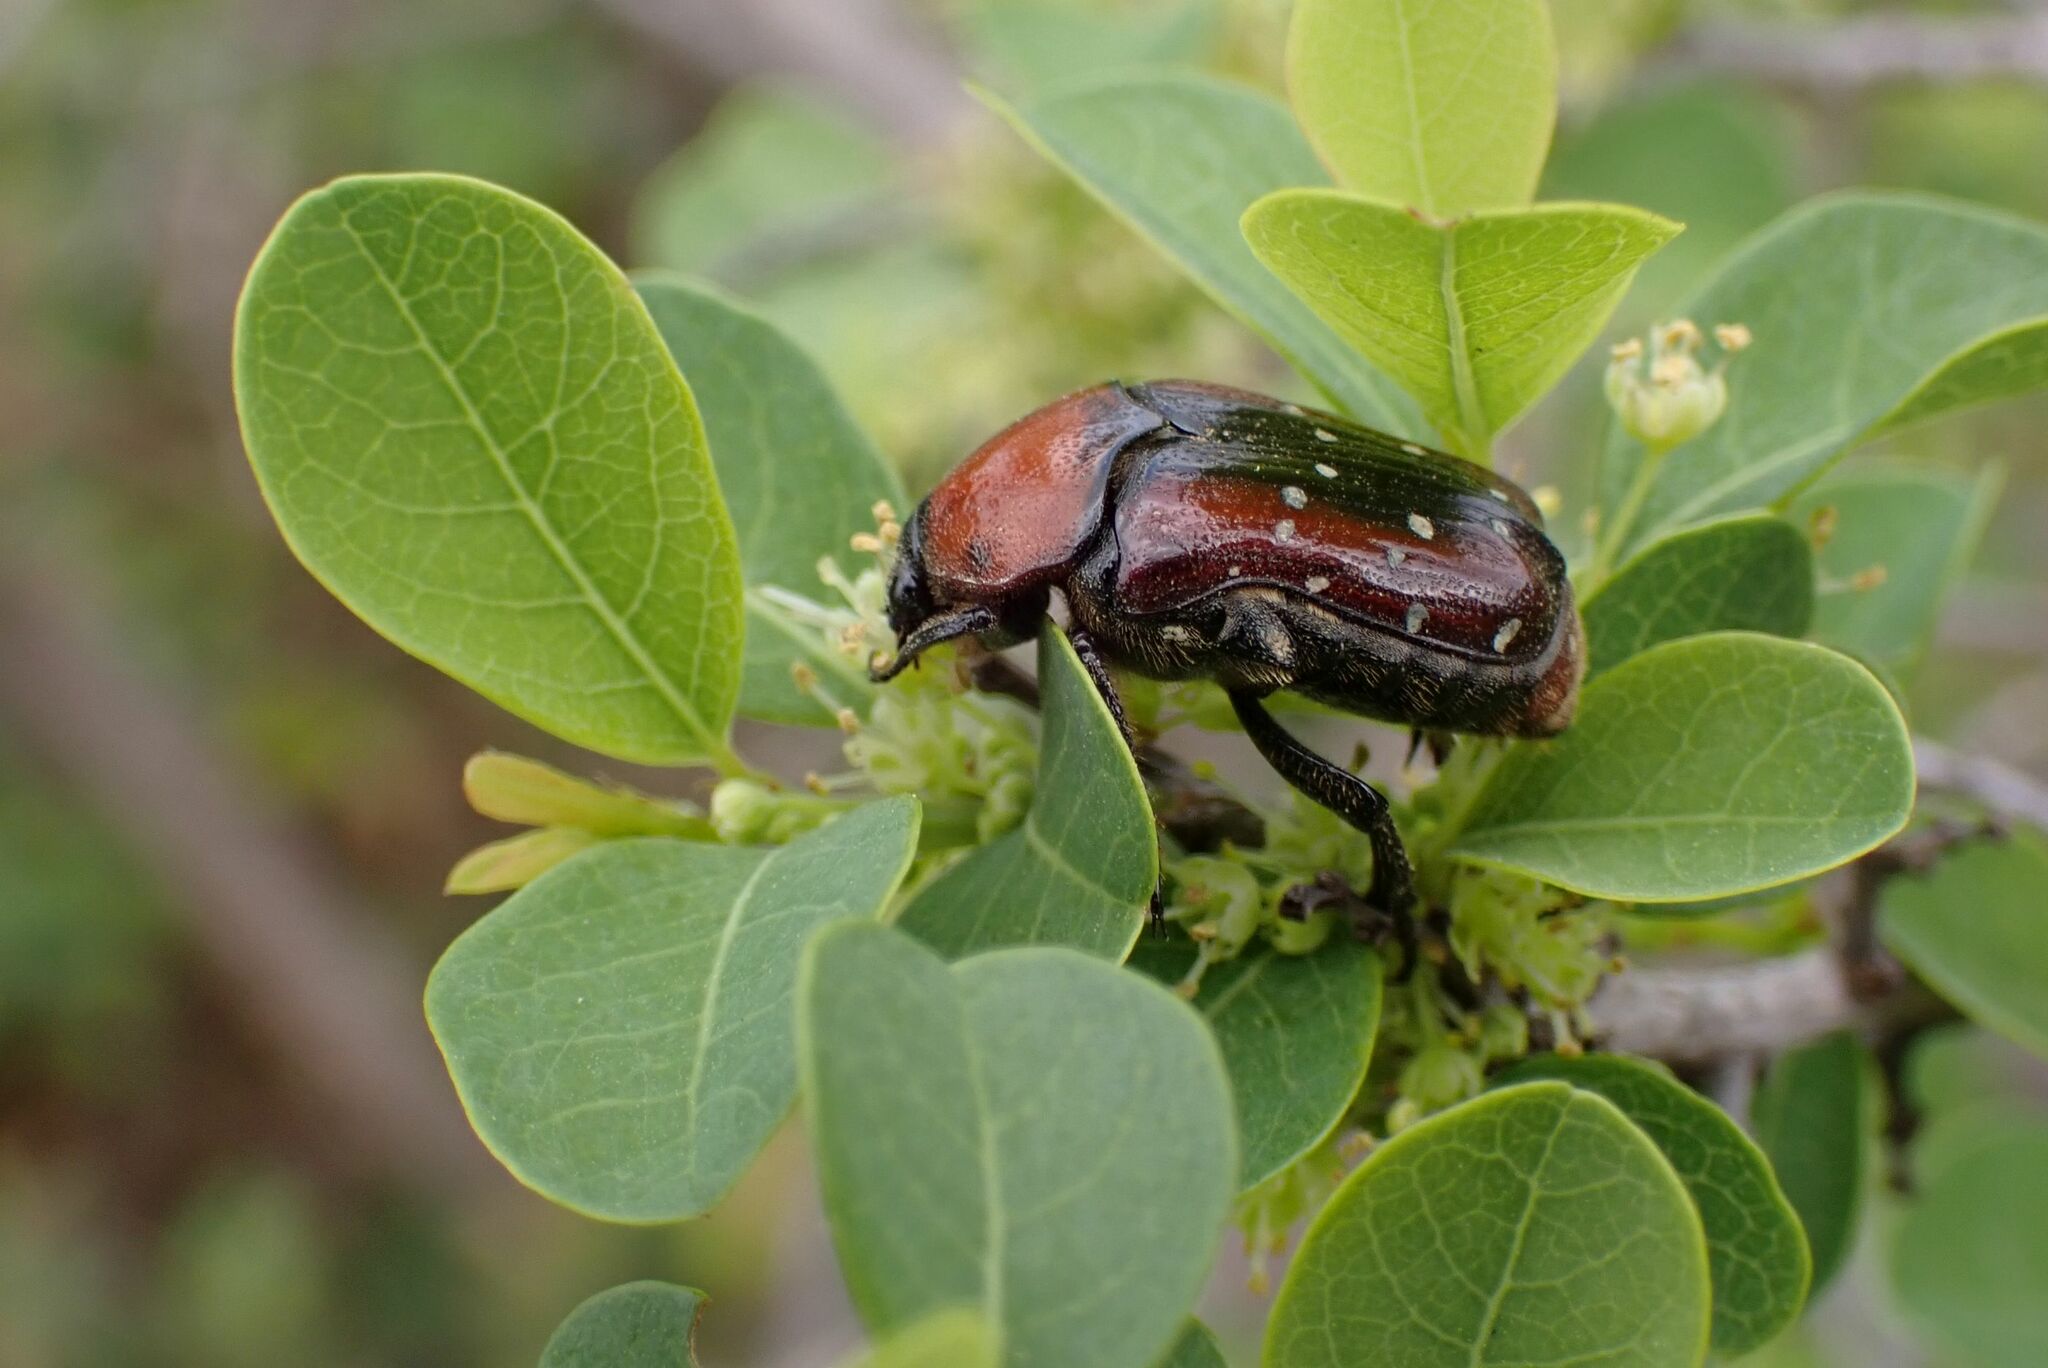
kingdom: Animalia
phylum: Arthropoda
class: Insecta
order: Coleoptera
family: Scarabaeidae
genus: Clinteroides
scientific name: Clinteroides permutans
